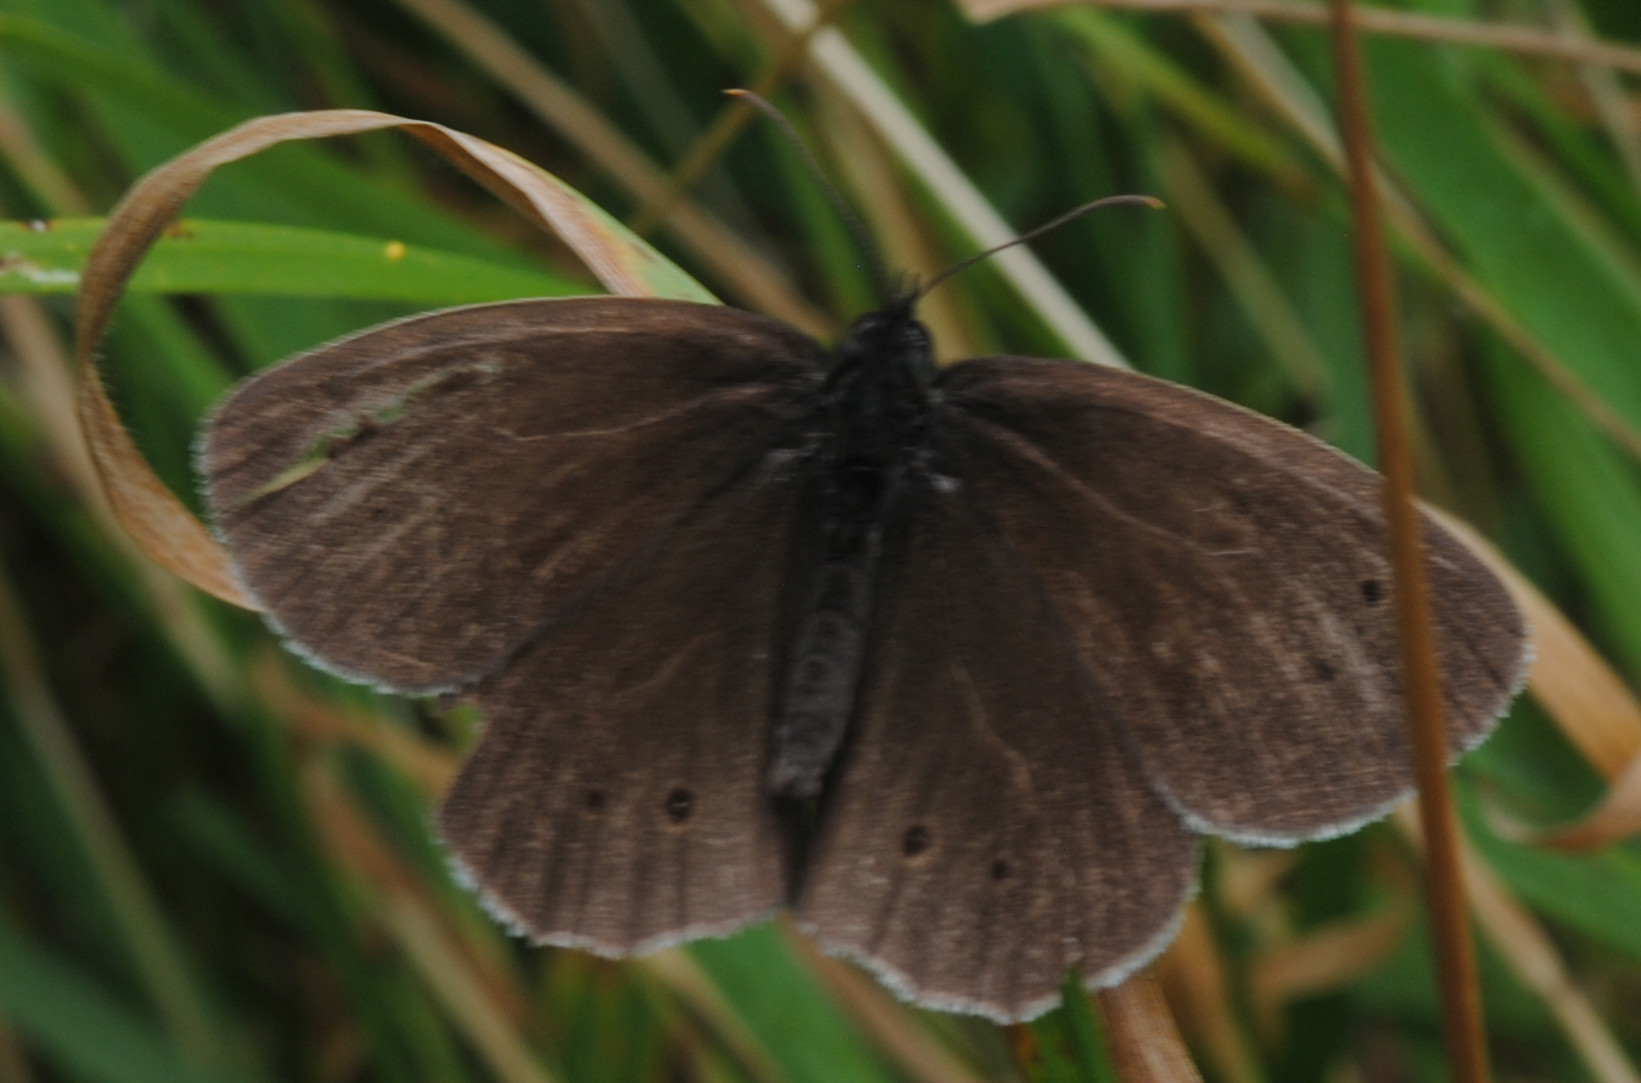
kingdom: Animalia
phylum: Arthropoda
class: Insecta
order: Lepidoptera
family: Nymphalidae
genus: Aphantopus
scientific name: Aphantopus hyperantus
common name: Ringlet
